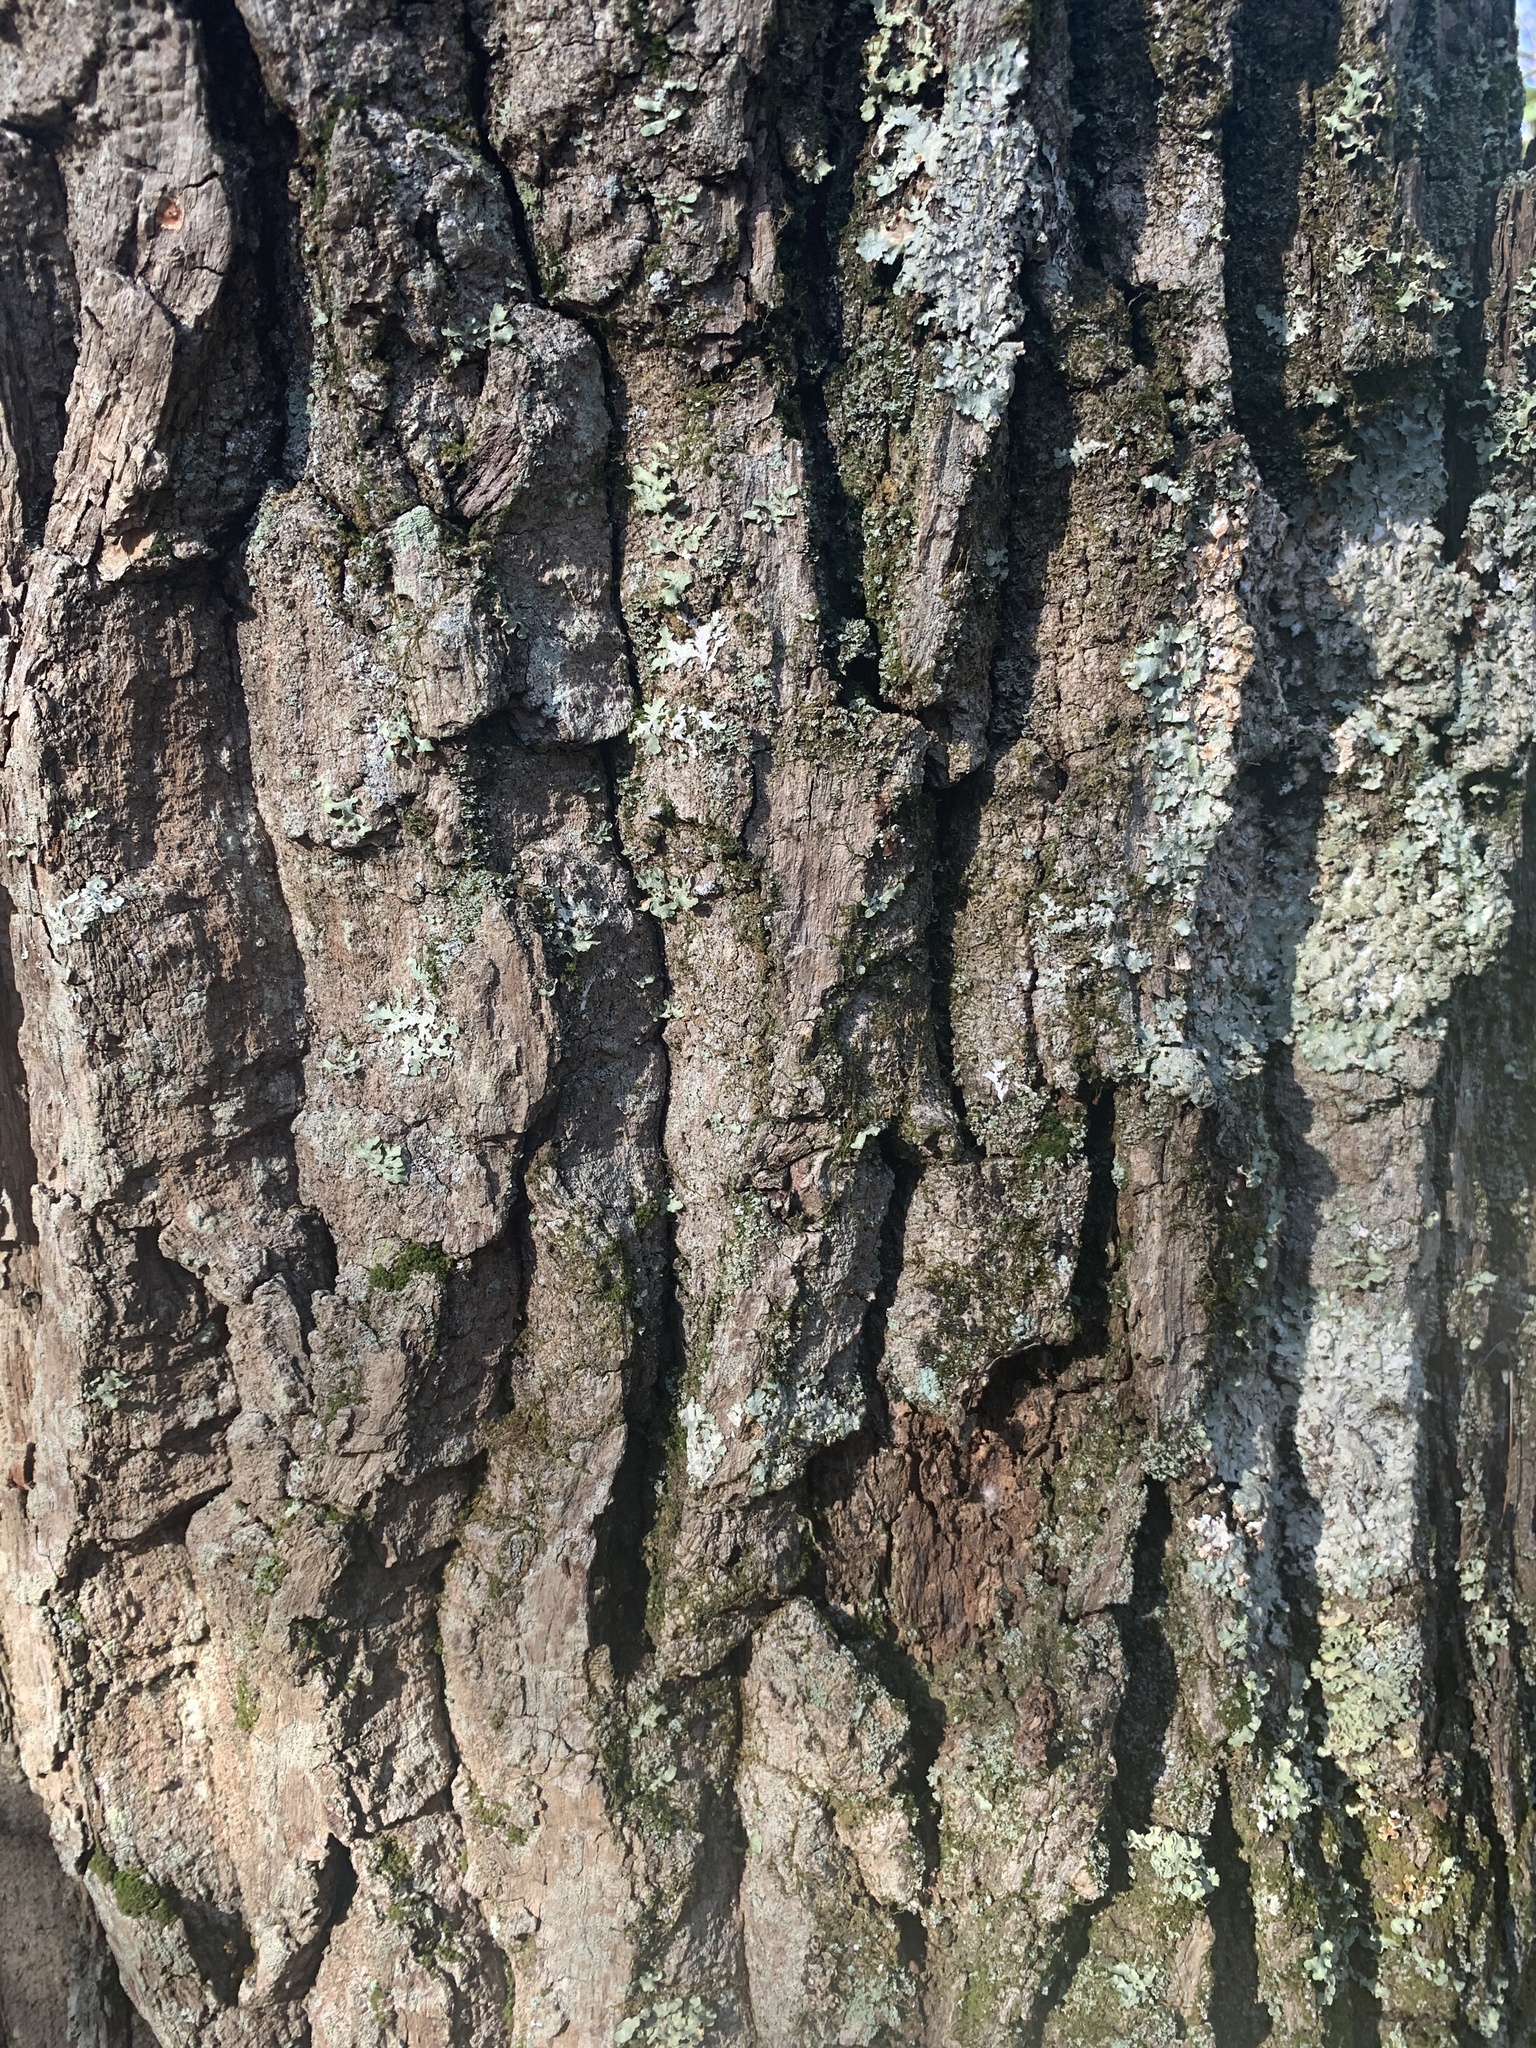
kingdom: Plantae
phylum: Tracheophyta
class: Magnoliopsida
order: Fagales
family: Fagaceae
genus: Quercus
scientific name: Quercus montana
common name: Chestnut oak
